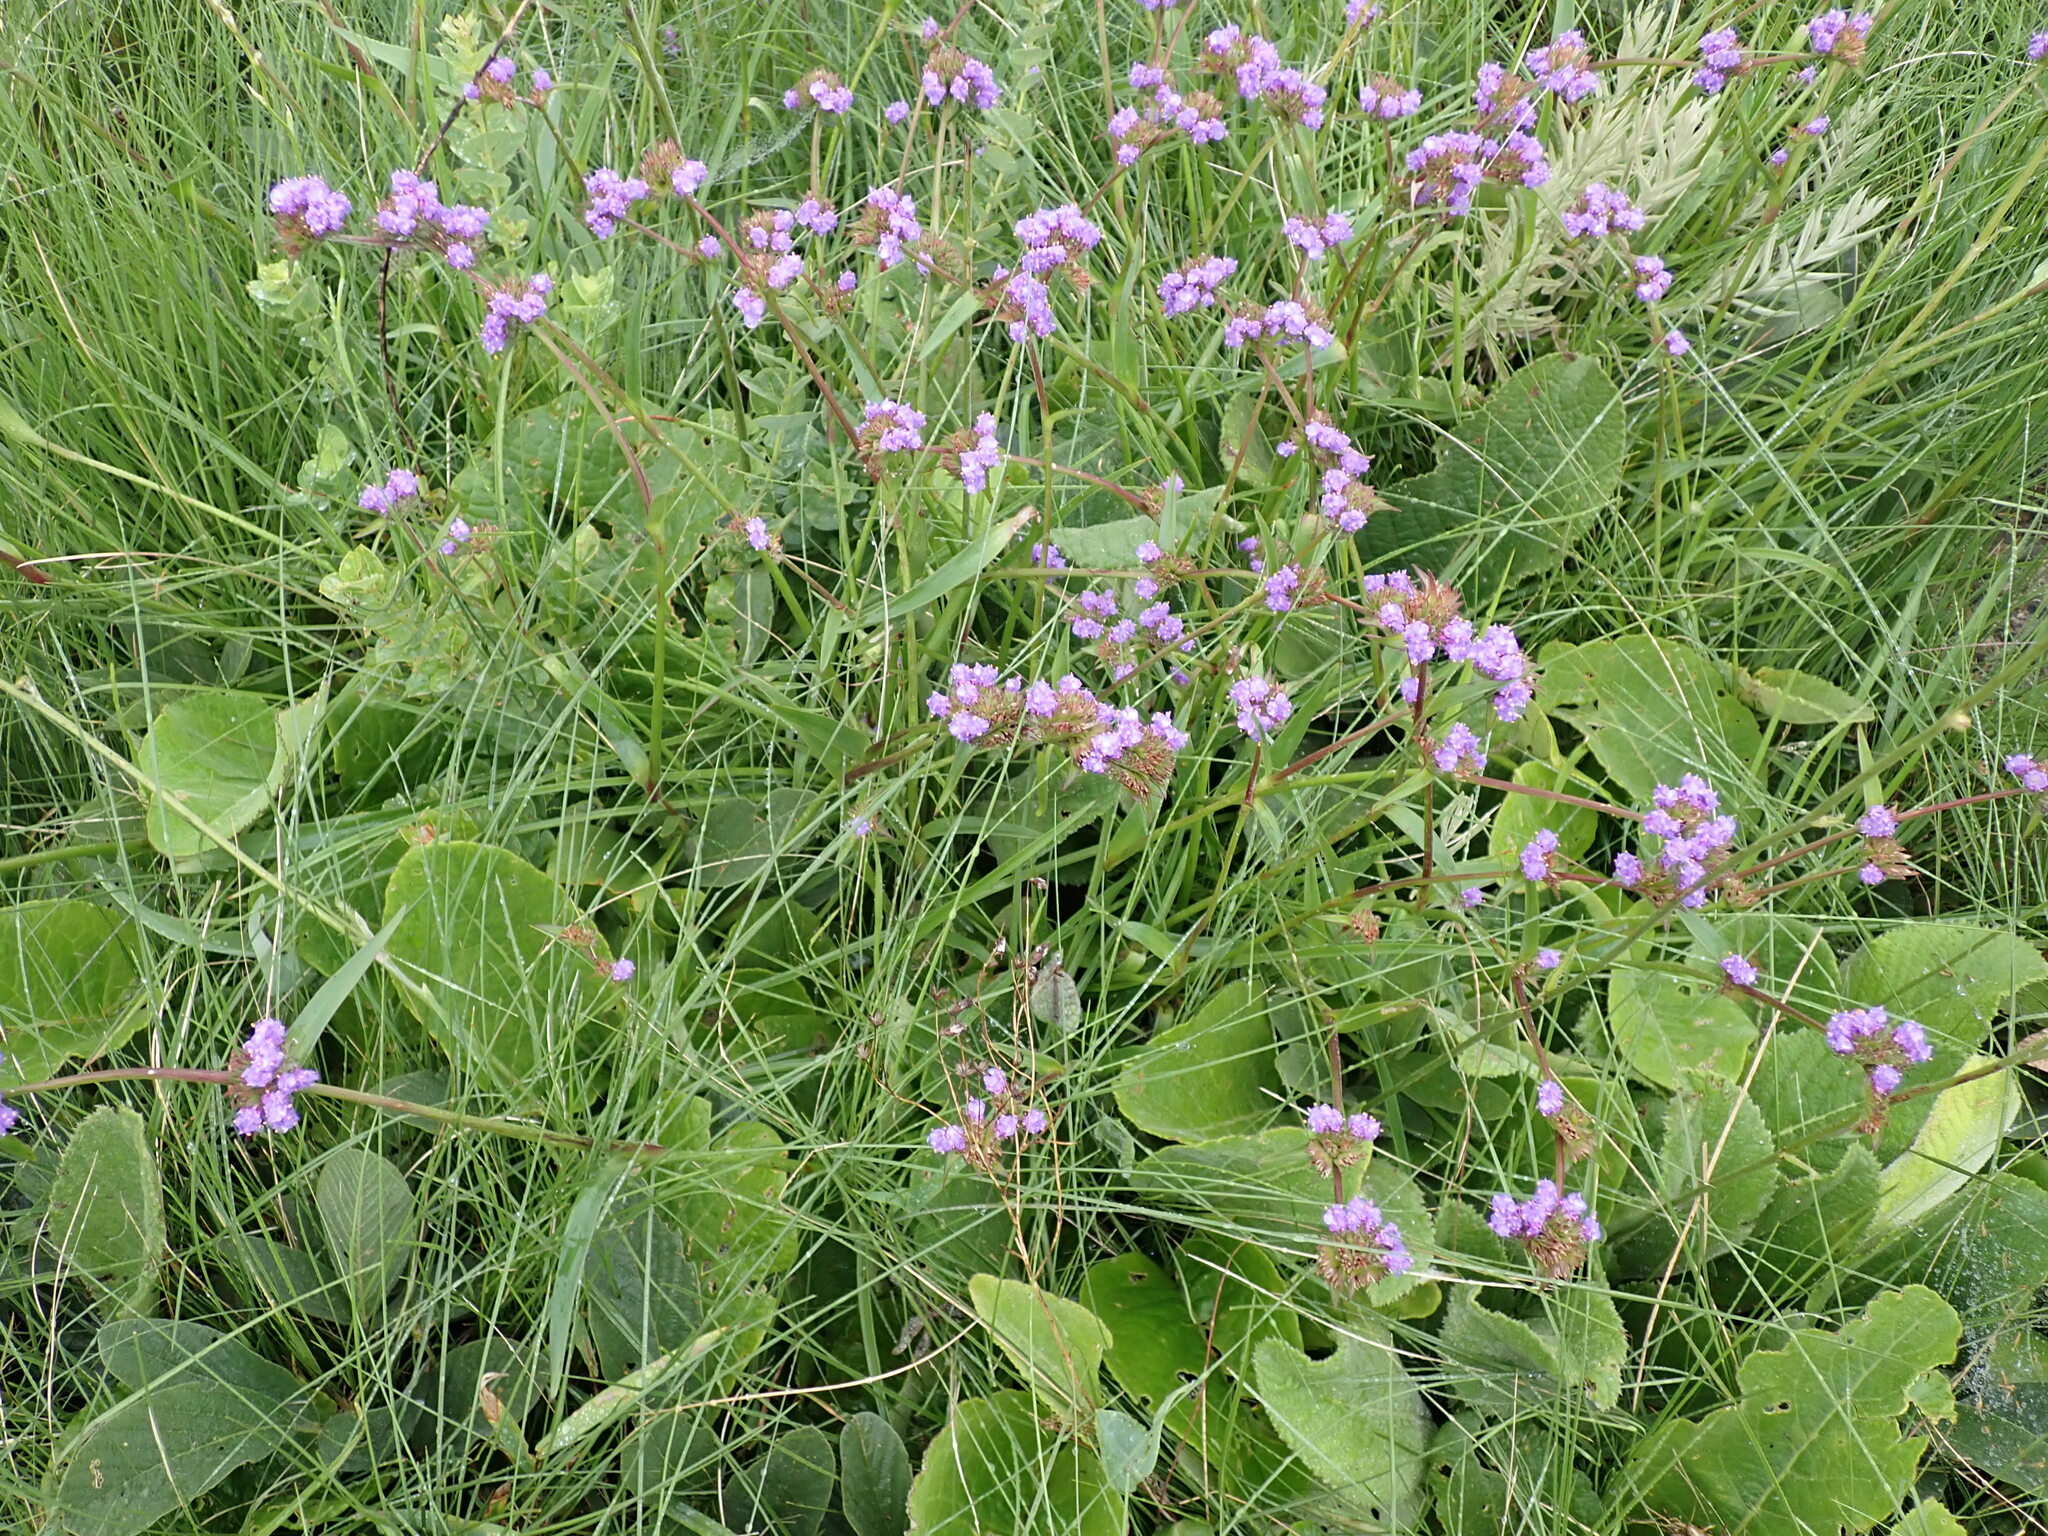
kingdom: Plantae
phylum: Tracheophyta
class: Liliopsida
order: Commelinales
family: Commelinaceae
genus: Cyanotis
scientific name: Cyanotis speciosa
